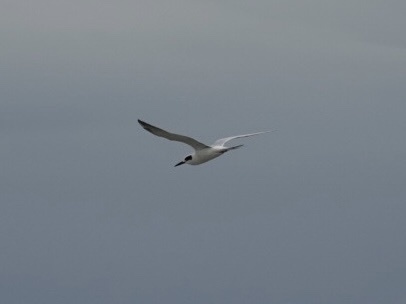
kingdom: Animalia
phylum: Chordata
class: Aves
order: Charadriiformes
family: Laridae
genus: Sterna
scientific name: Sterna forsteri
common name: Forster's tern
